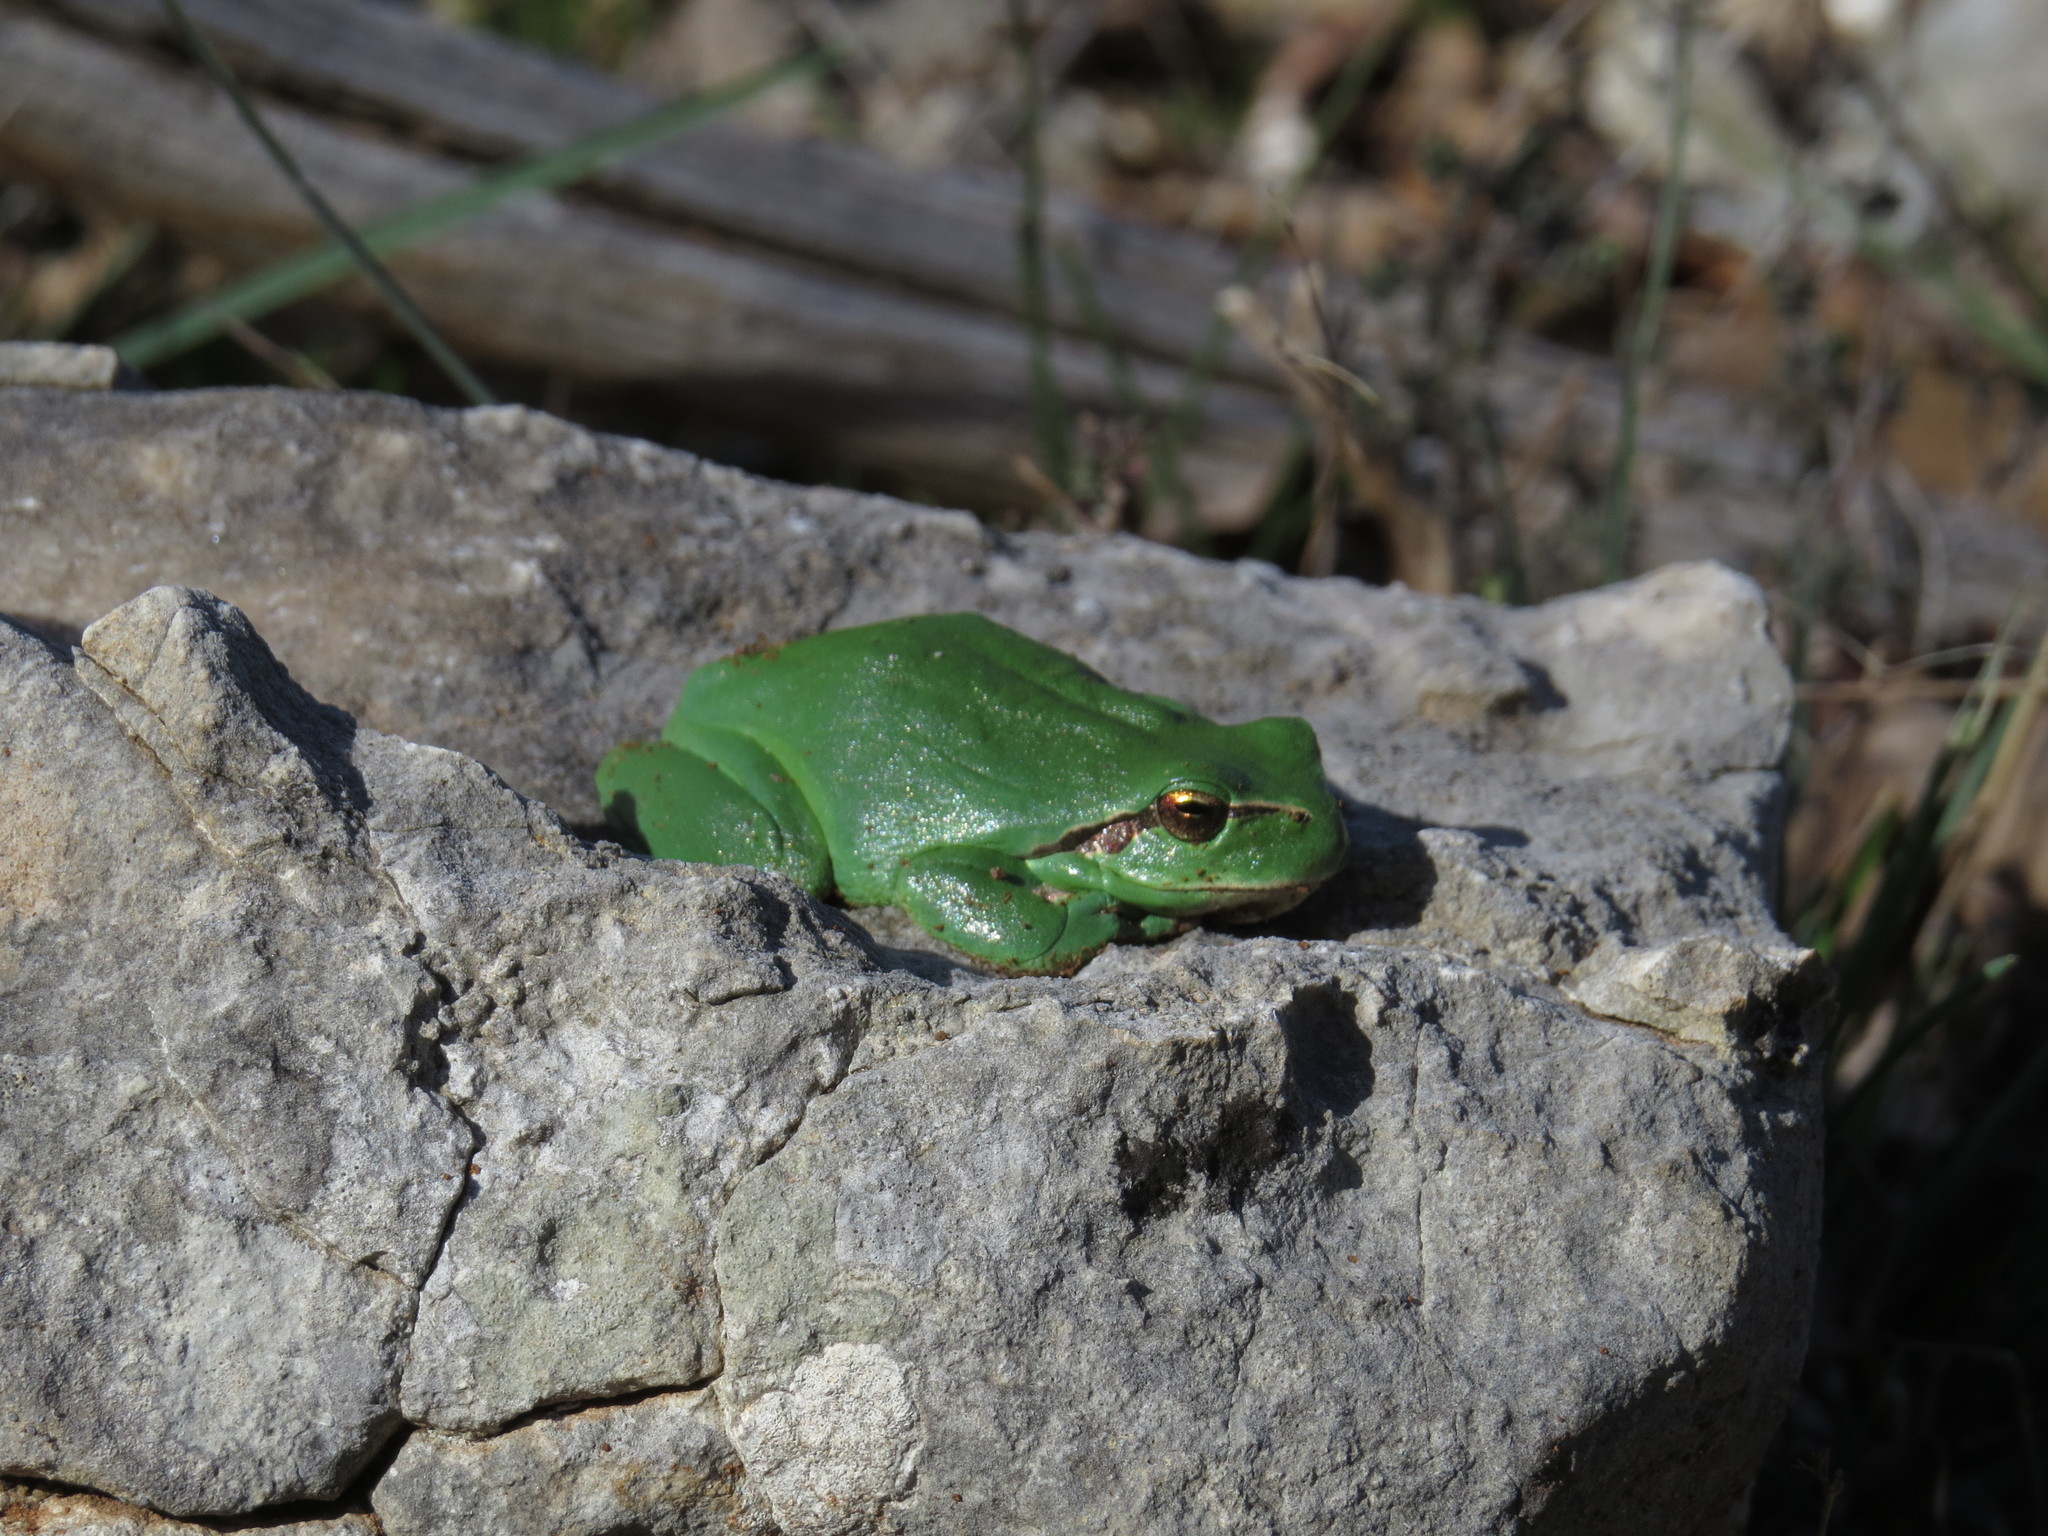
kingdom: Animalia
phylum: Chordata
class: Amphibia
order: Anura
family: Hylidae
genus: Hyla
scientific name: Hyla meridionalis
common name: Stripeless tree frog
